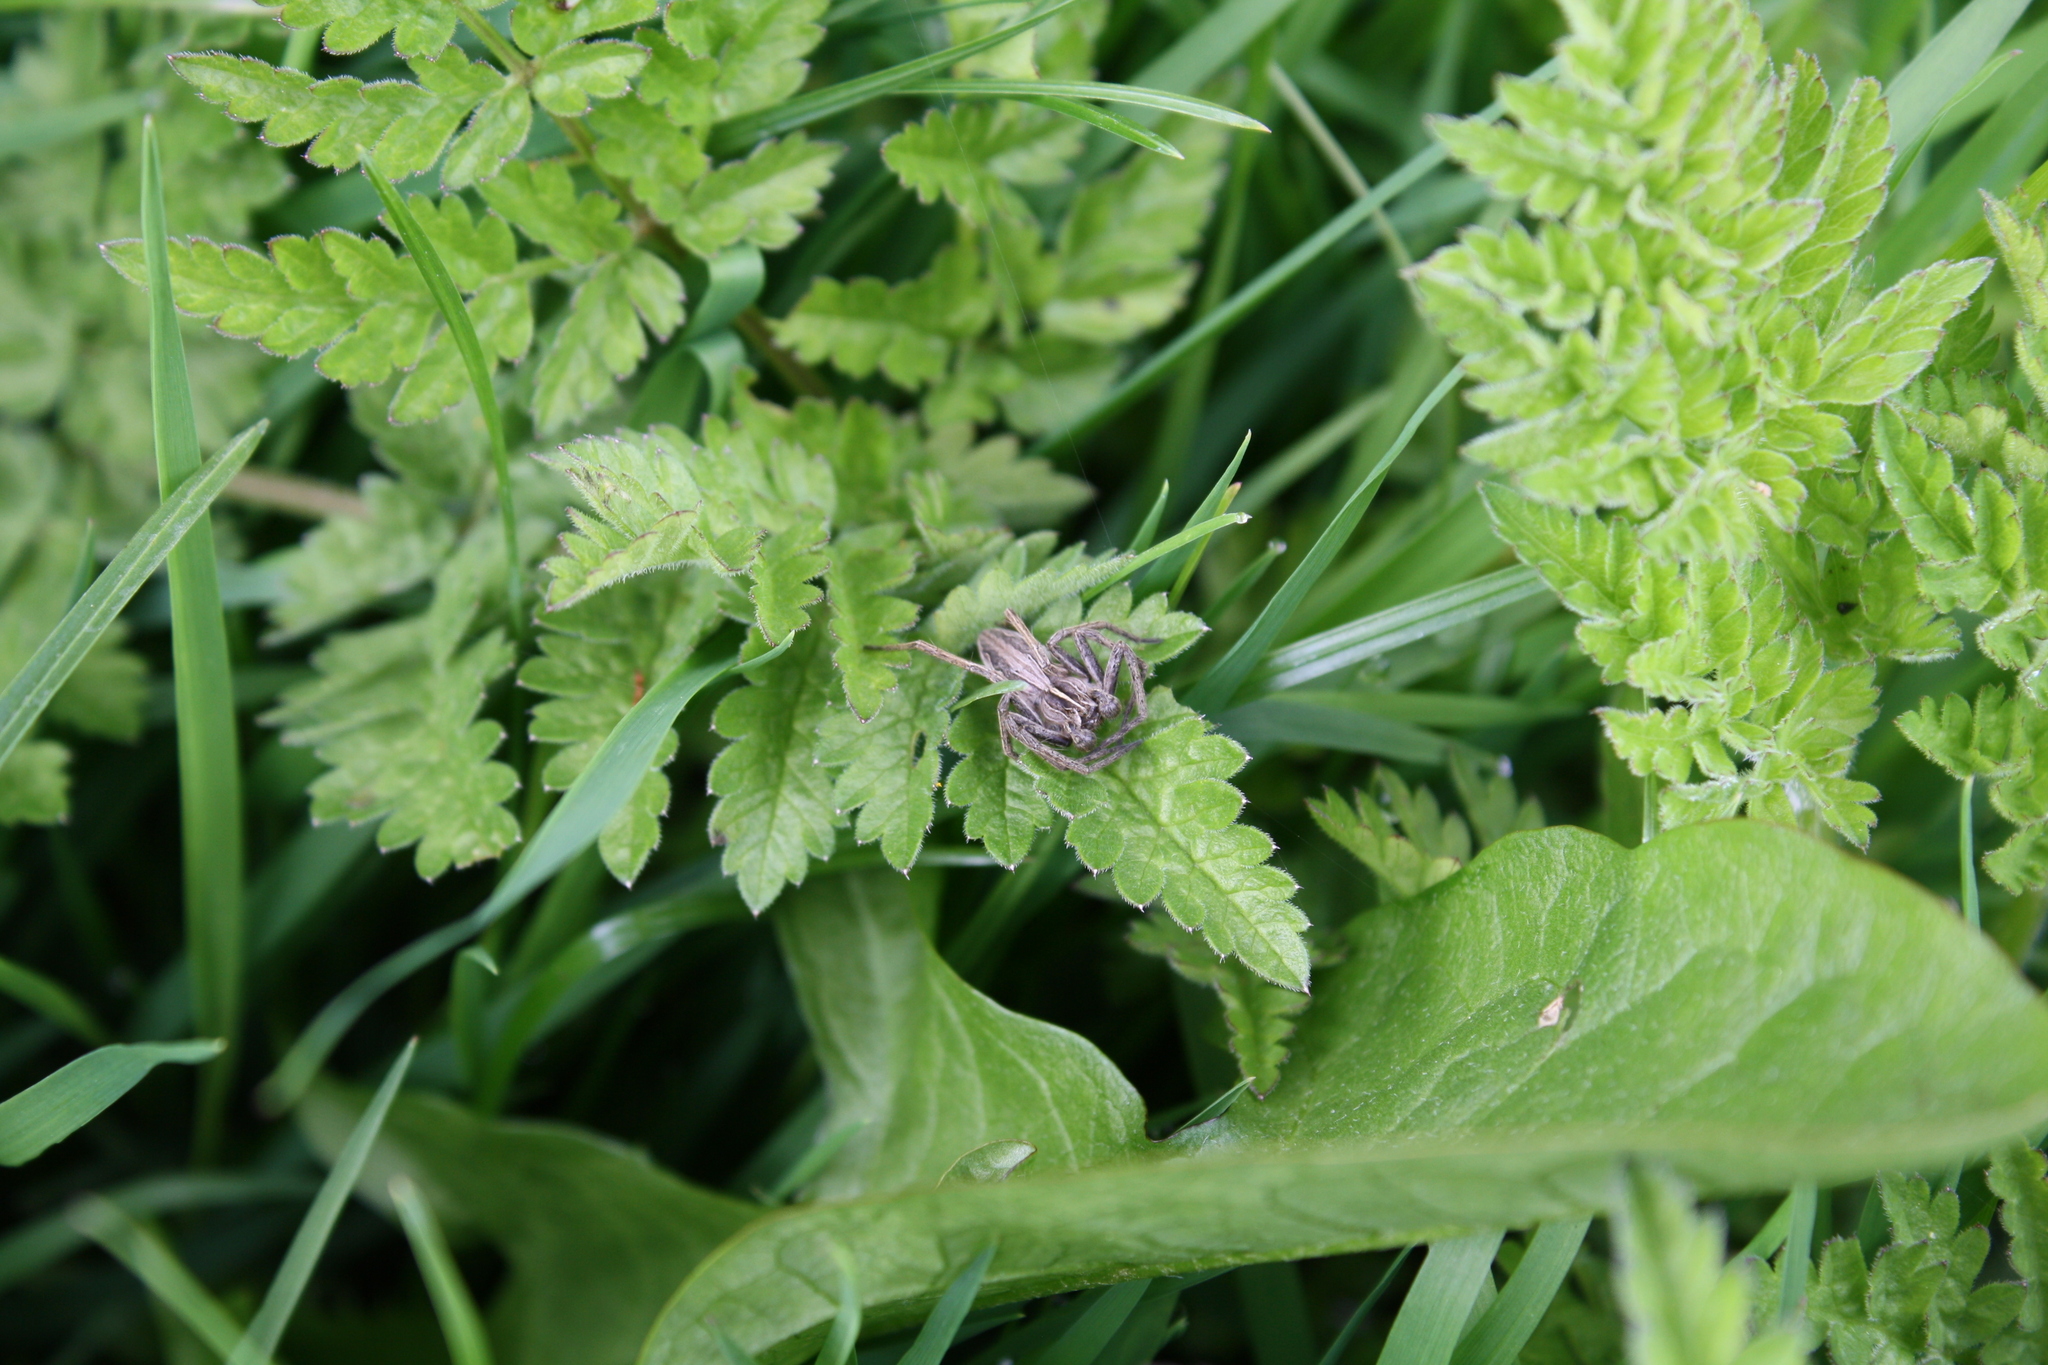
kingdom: Animalia
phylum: Arthropoda
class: Arachnida
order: Araneae
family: Pisauridae
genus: Pisaura
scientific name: Pisaura mirabilis
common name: Tent spider
